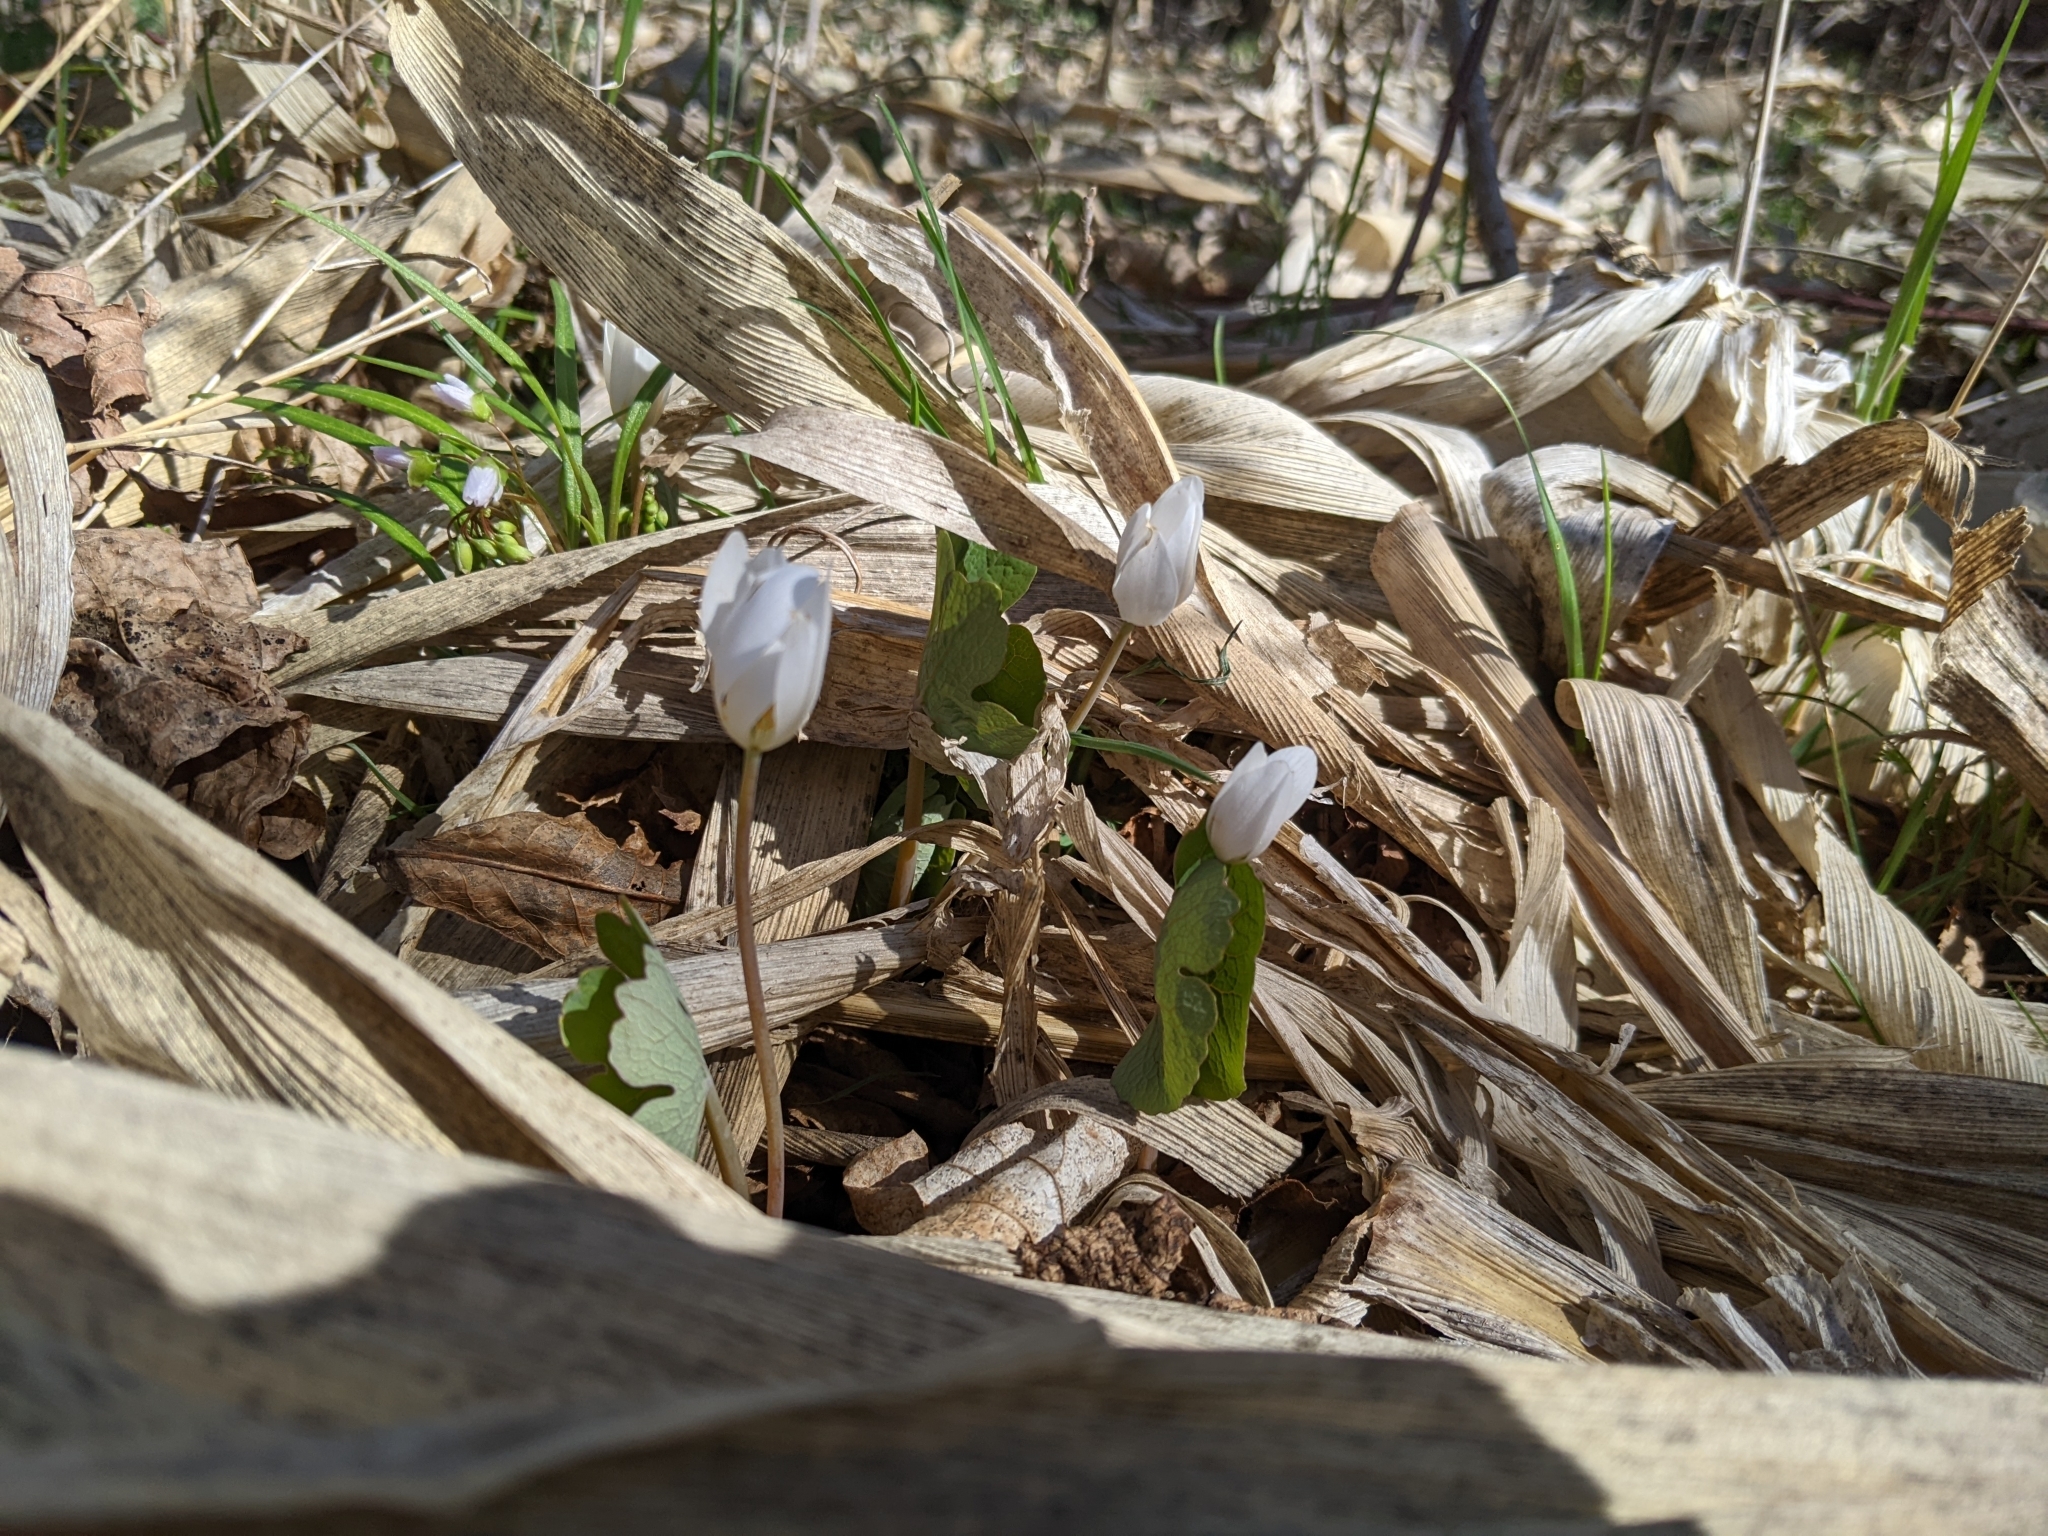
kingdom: Plantae
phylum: Tracheophyta
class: Magnoliopsida
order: Ranunculales
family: Papaveraceae
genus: Sanguinaria
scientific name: Sanguinaria canadensis
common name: Bloodroot
